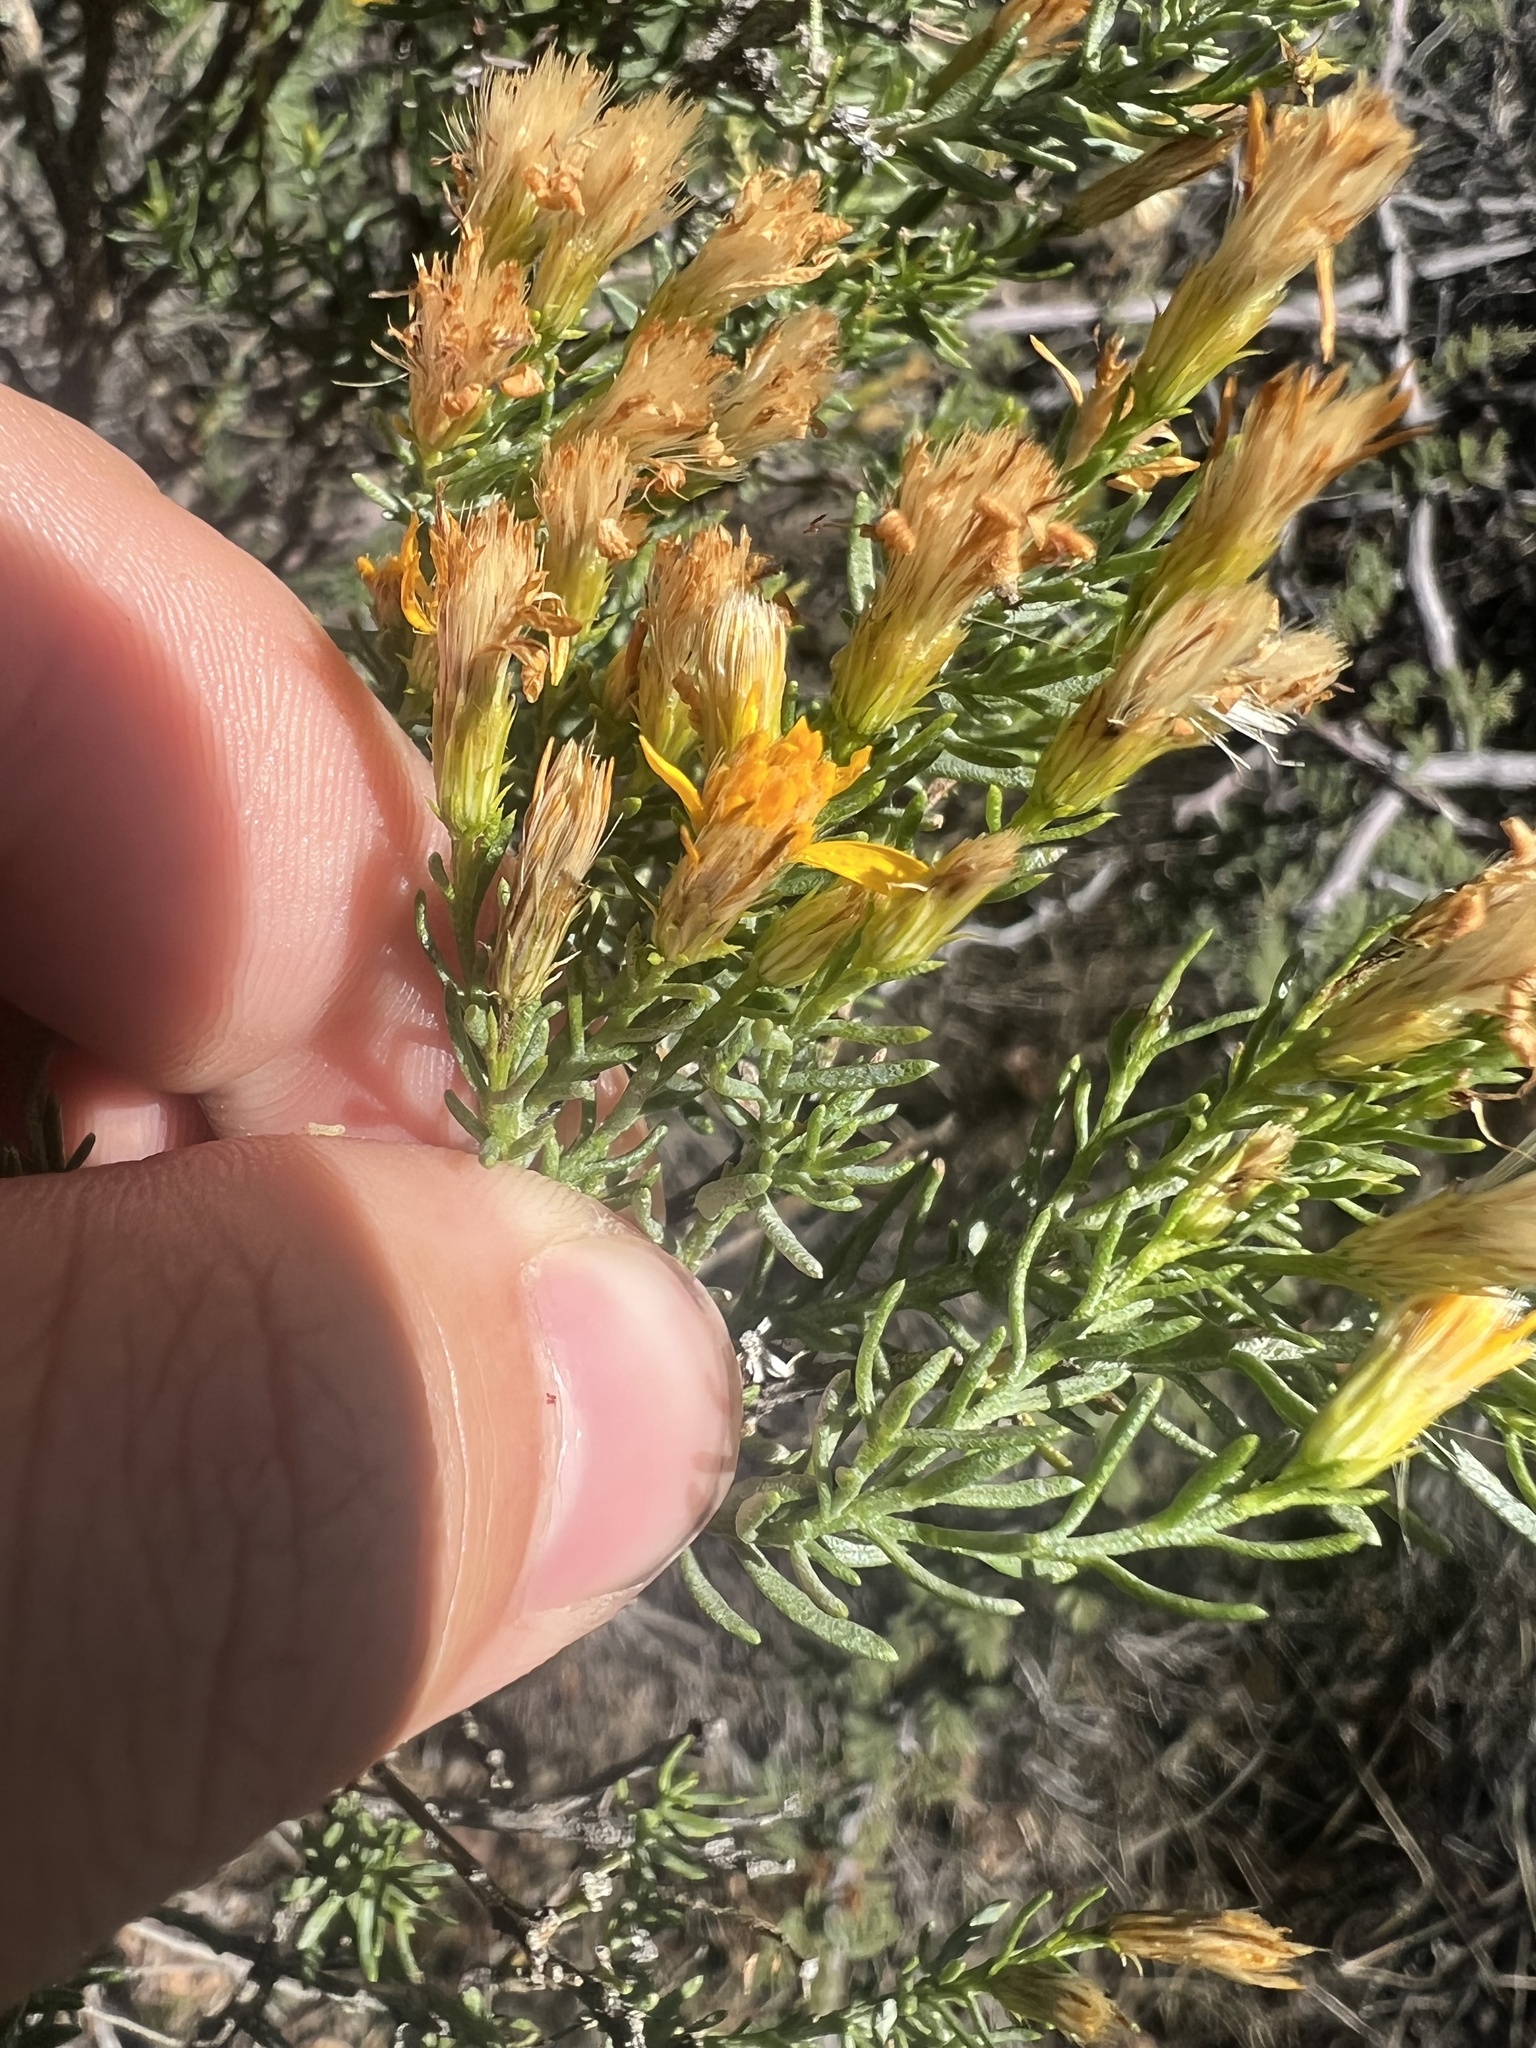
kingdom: Plantae
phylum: Tracheophyta
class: Magnoliopsida
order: Asterales
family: Asteraceae
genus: Ericameria
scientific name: Ericameria laricifolia
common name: Turpentine-bush
